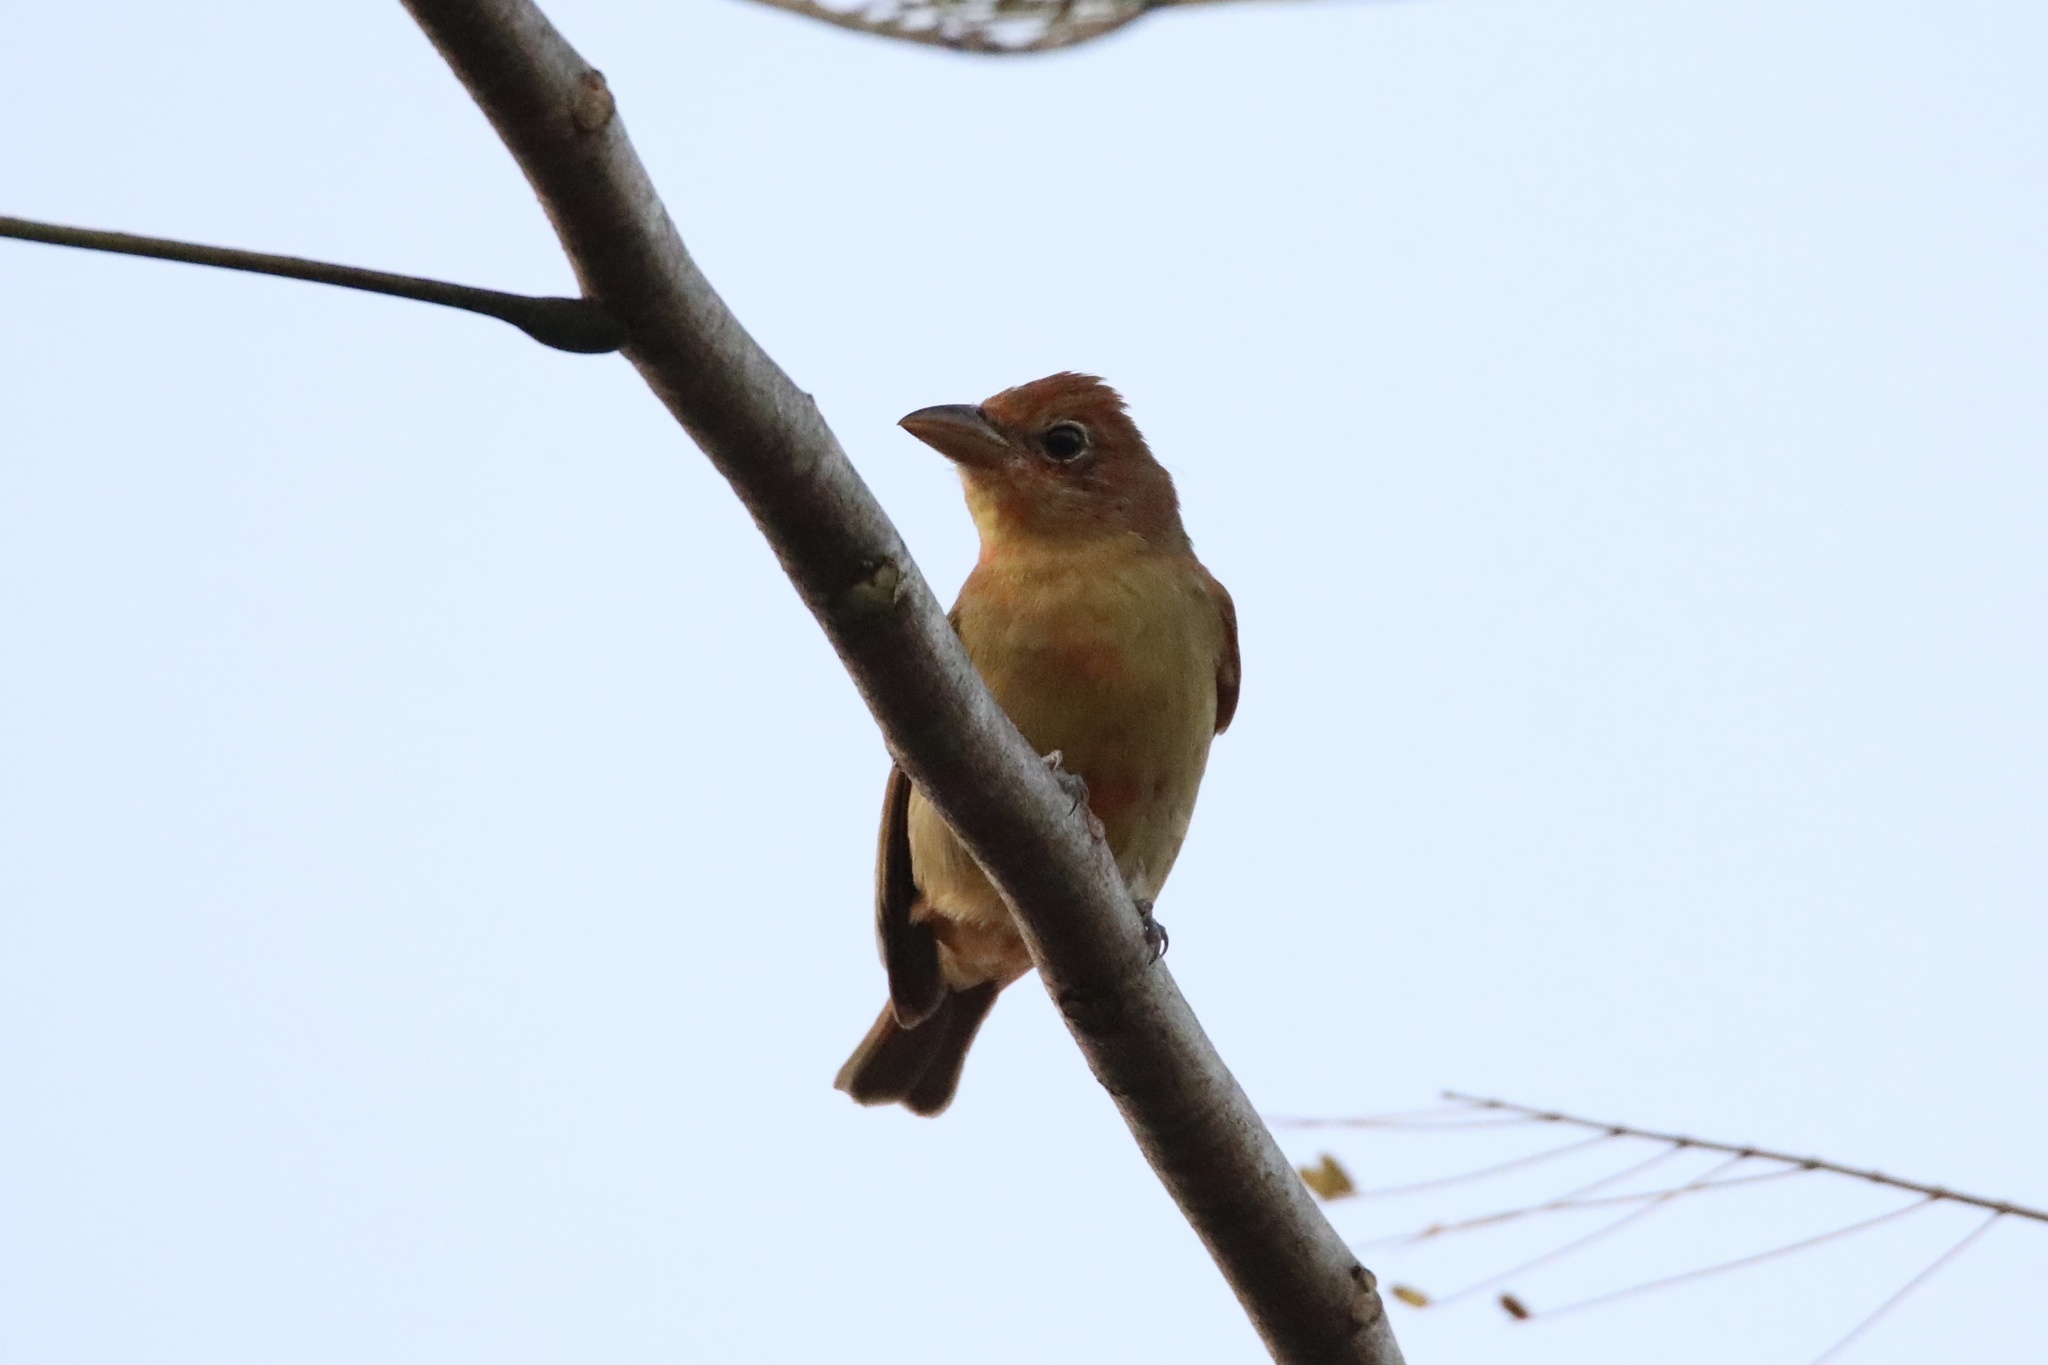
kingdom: Animalia
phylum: Chordata
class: Aves
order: Passeriformes
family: Cardinalidae
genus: Piranga
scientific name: Piranga rubra
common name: Summer tanager
